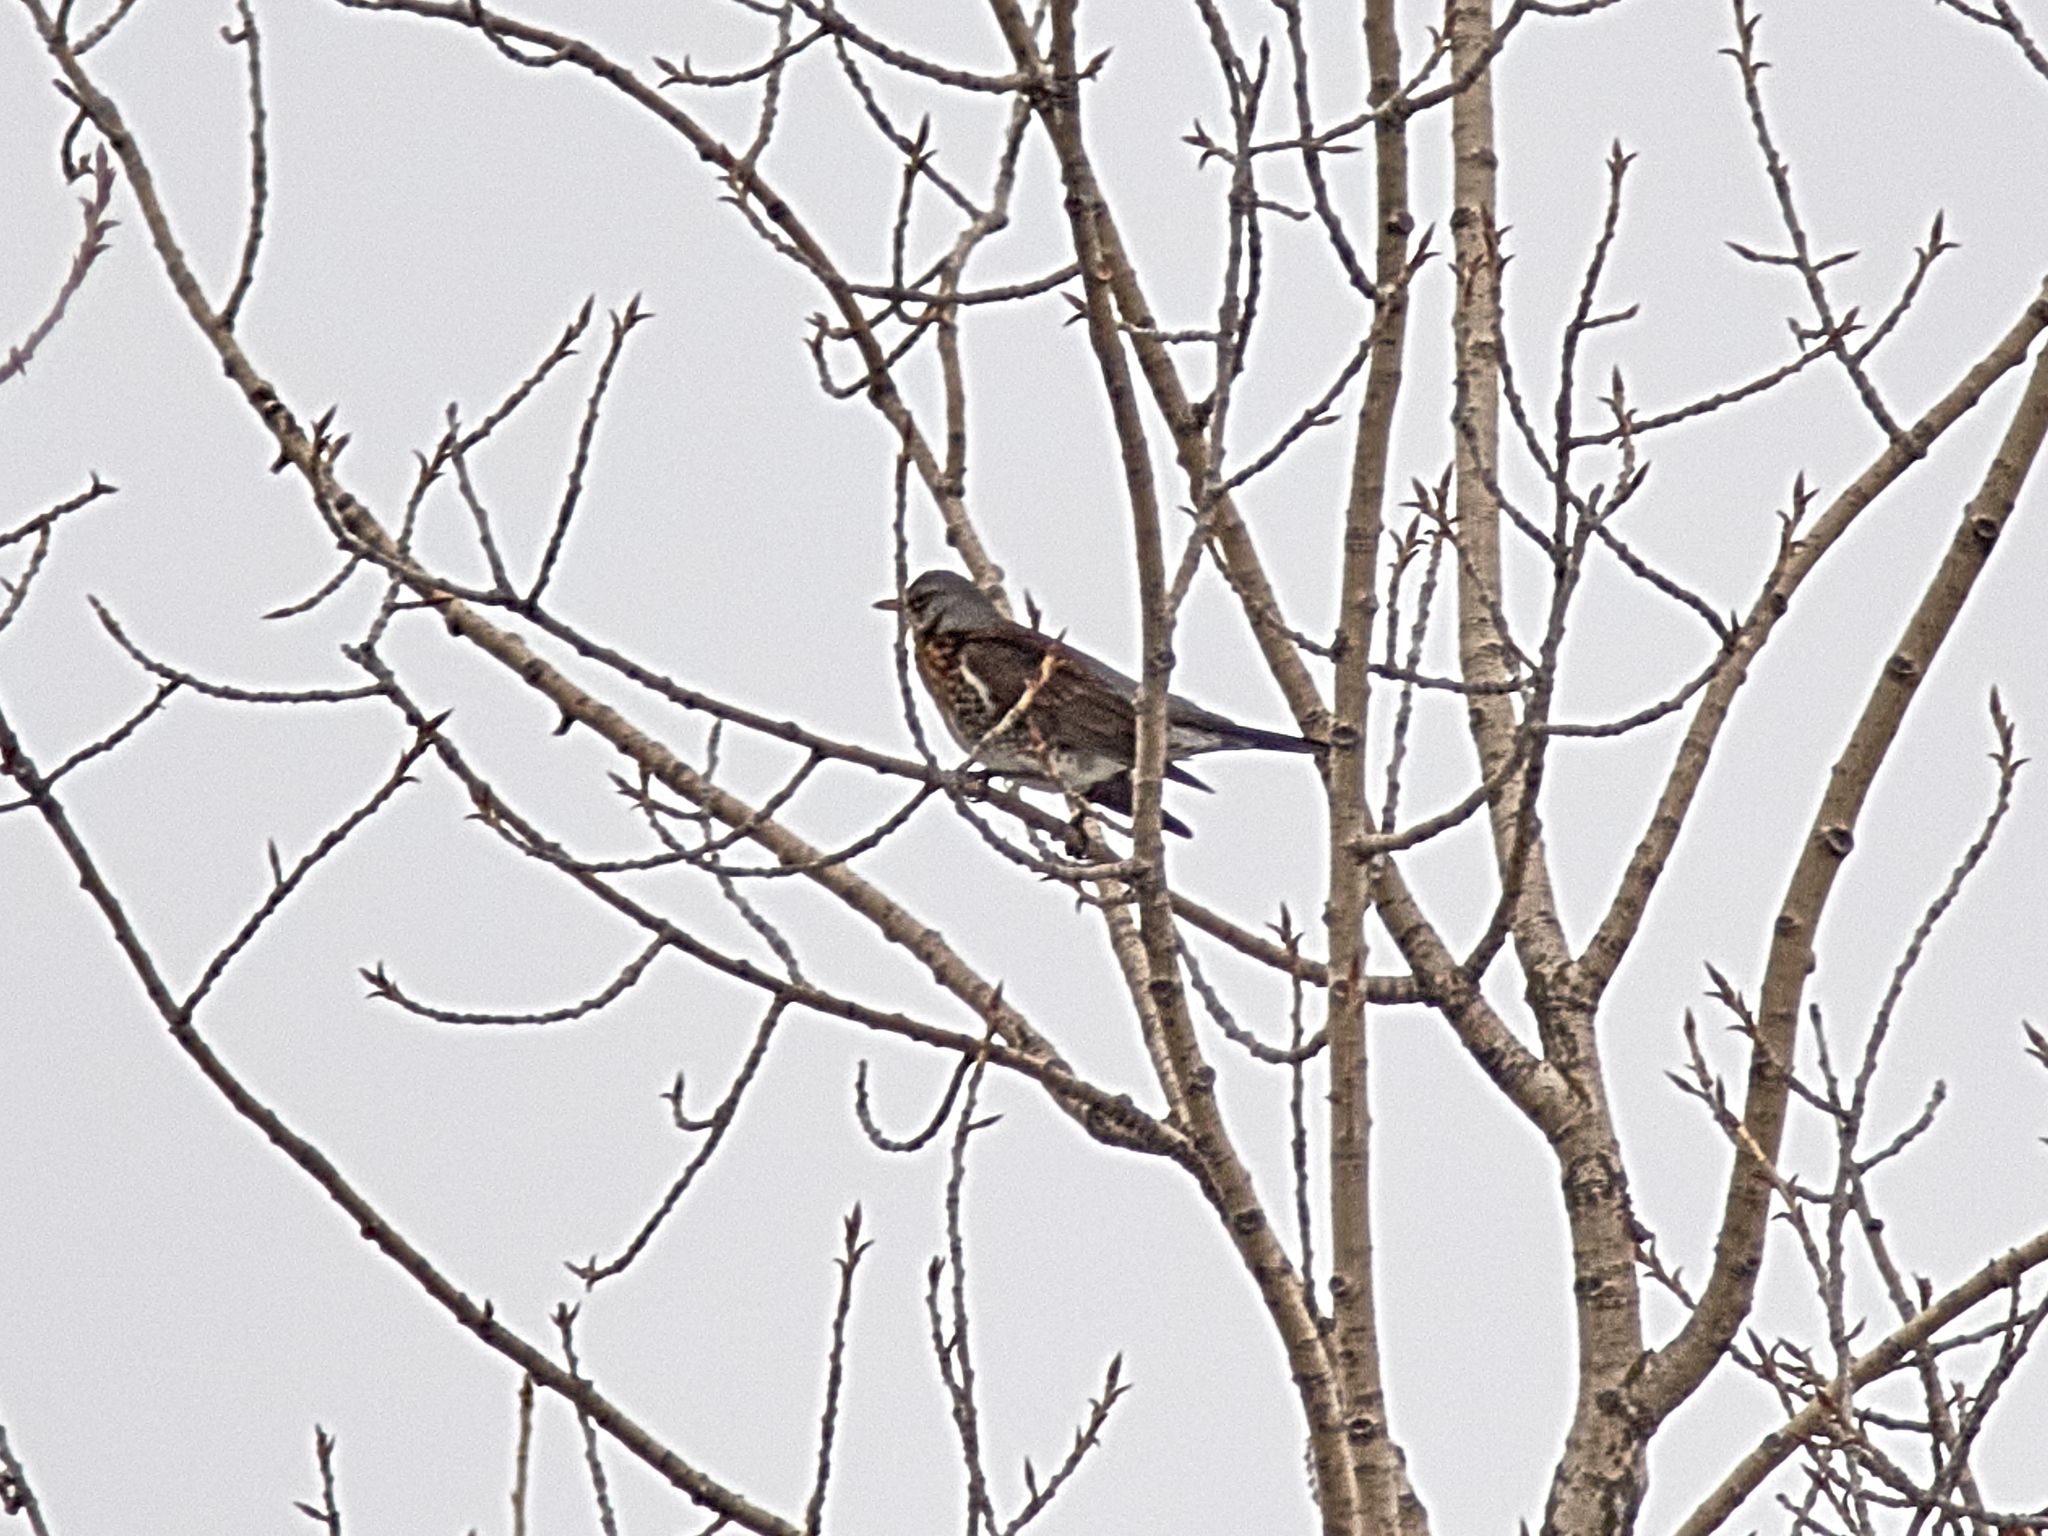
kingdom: Animalia
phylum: Chordata
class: Aves
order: Passeriformes
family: Turdidae
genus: Turdus
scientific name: Turdus pilaris
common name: Fieldfare
